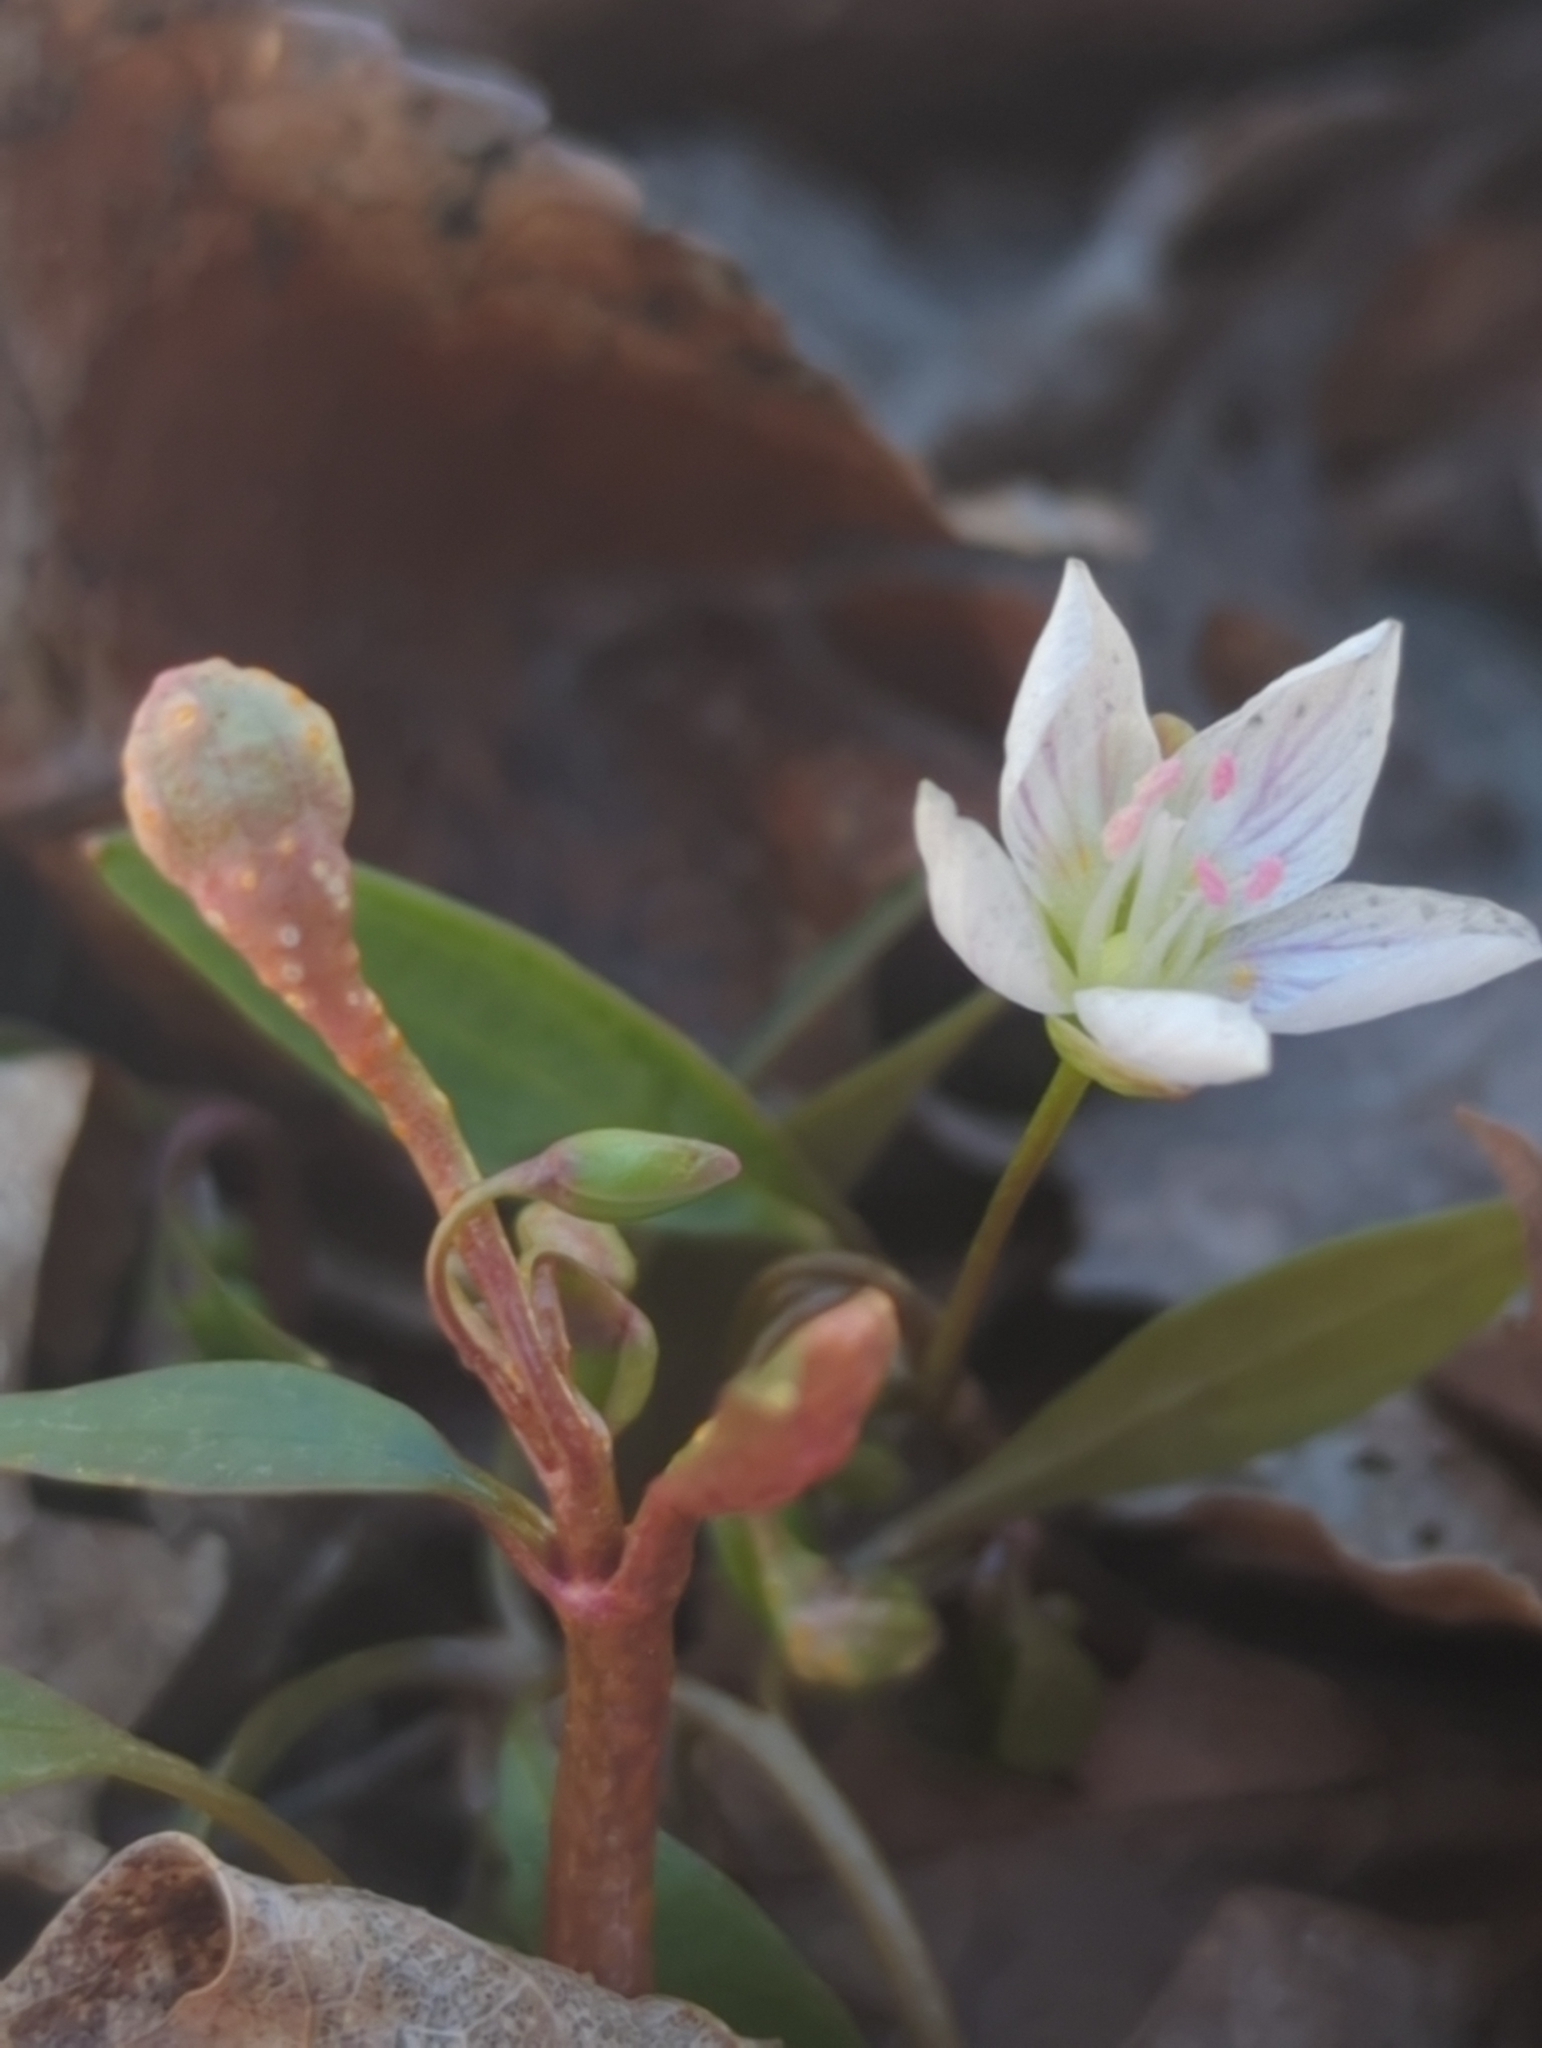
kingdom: Plantae
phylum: Tracheophyta
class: Magnoliopsida
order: Caryophyllales
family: Montiaceae
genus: Claytonia
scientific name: Claytonia caroliniana
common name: Carolina spring beauty
